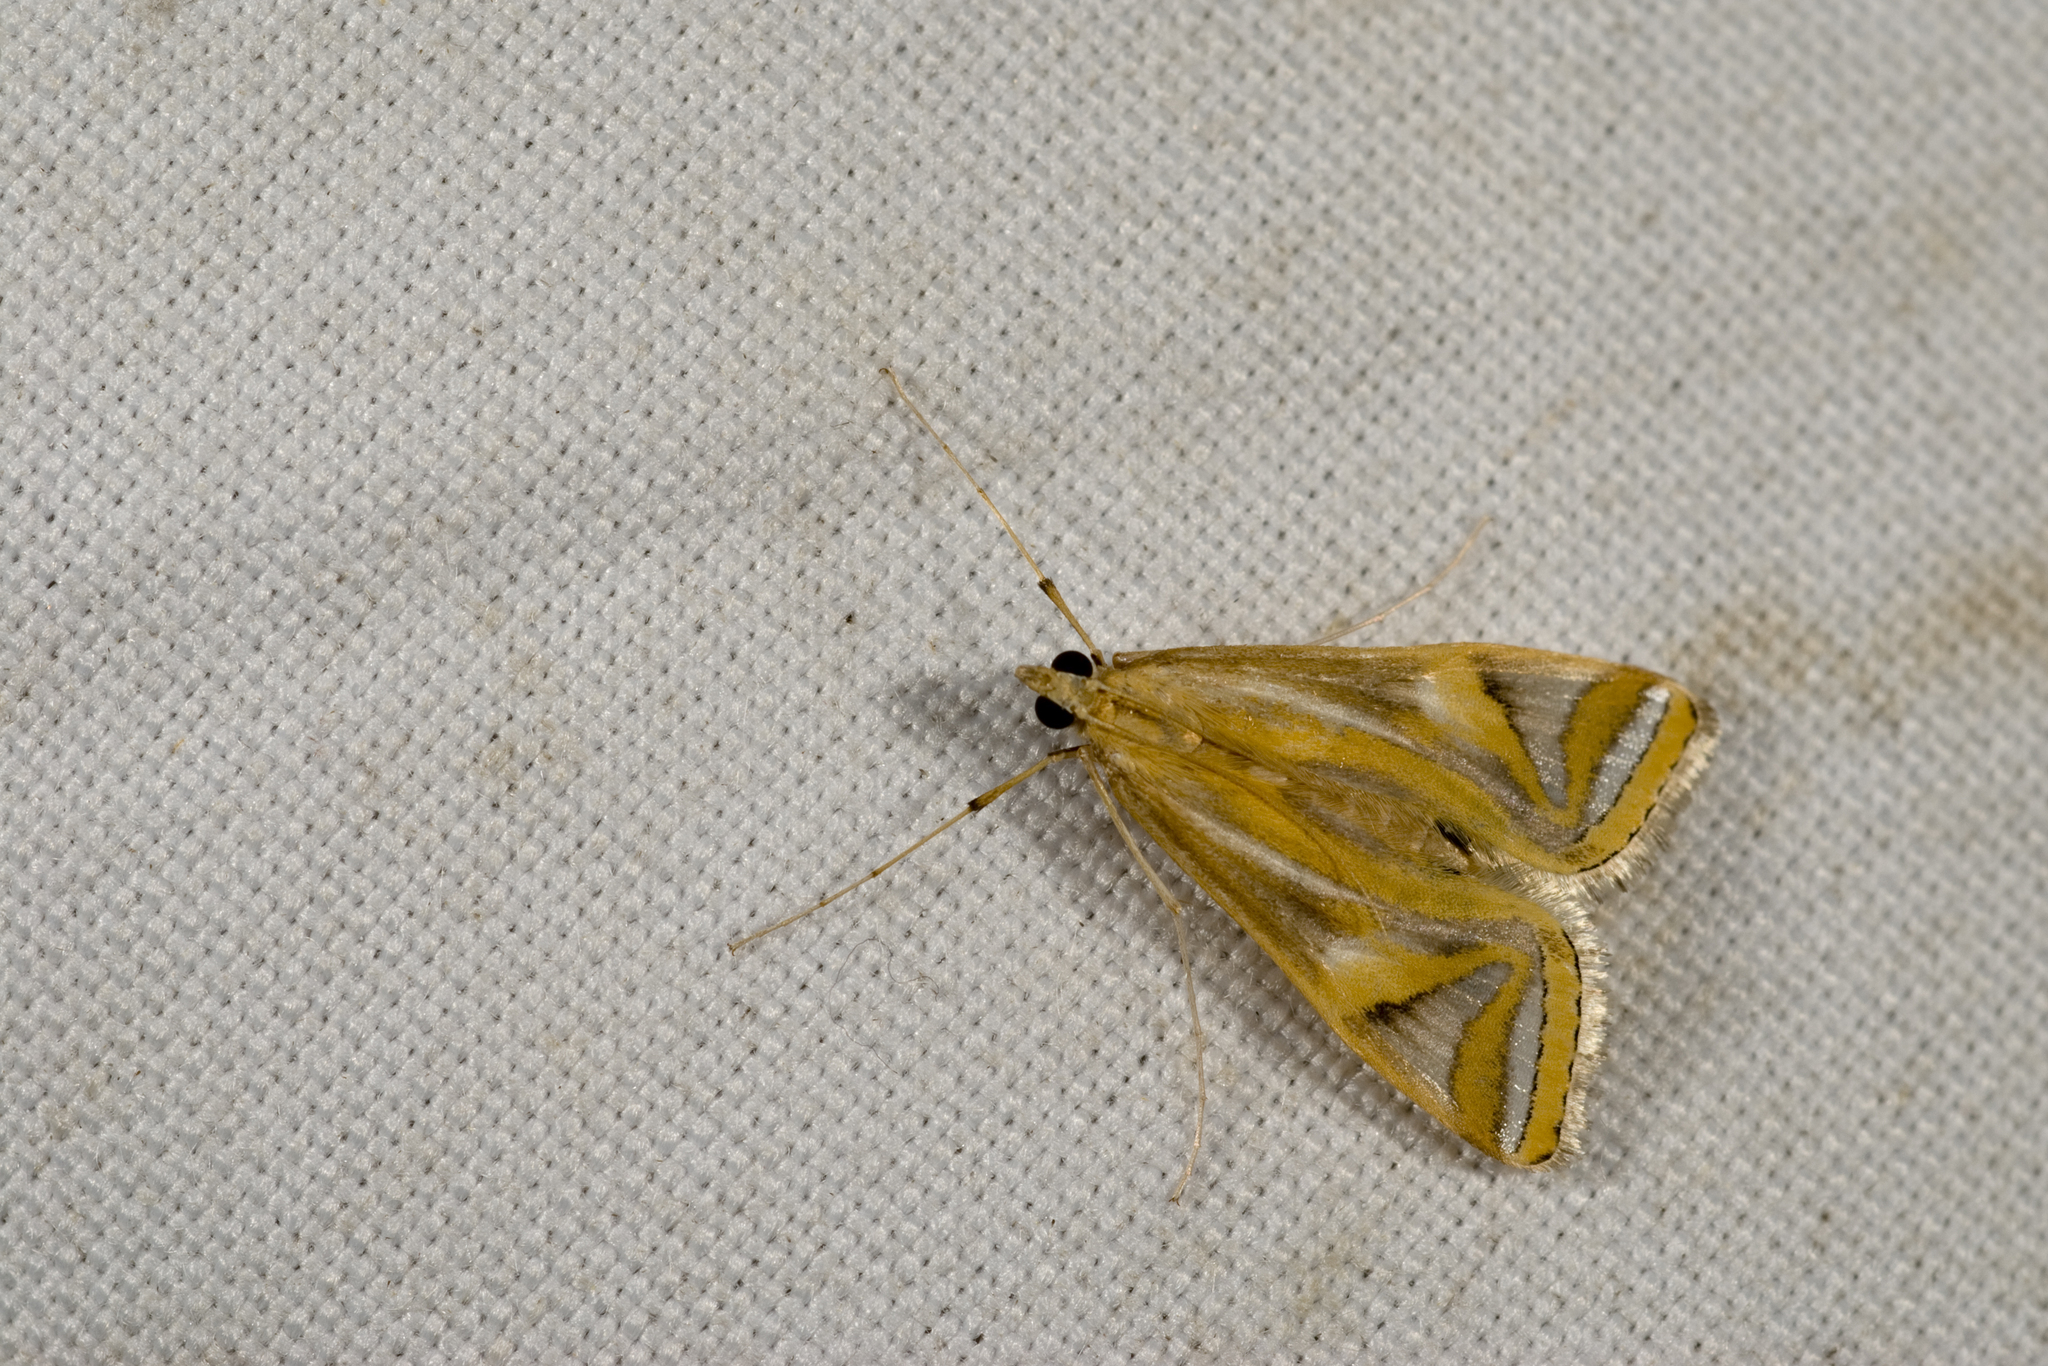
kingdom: Animalia
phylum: Arthropoda
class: Insecta
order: Lepidoptera
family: Crambidae
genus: Eoophyla
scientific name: Eoophyla conjunctalis
